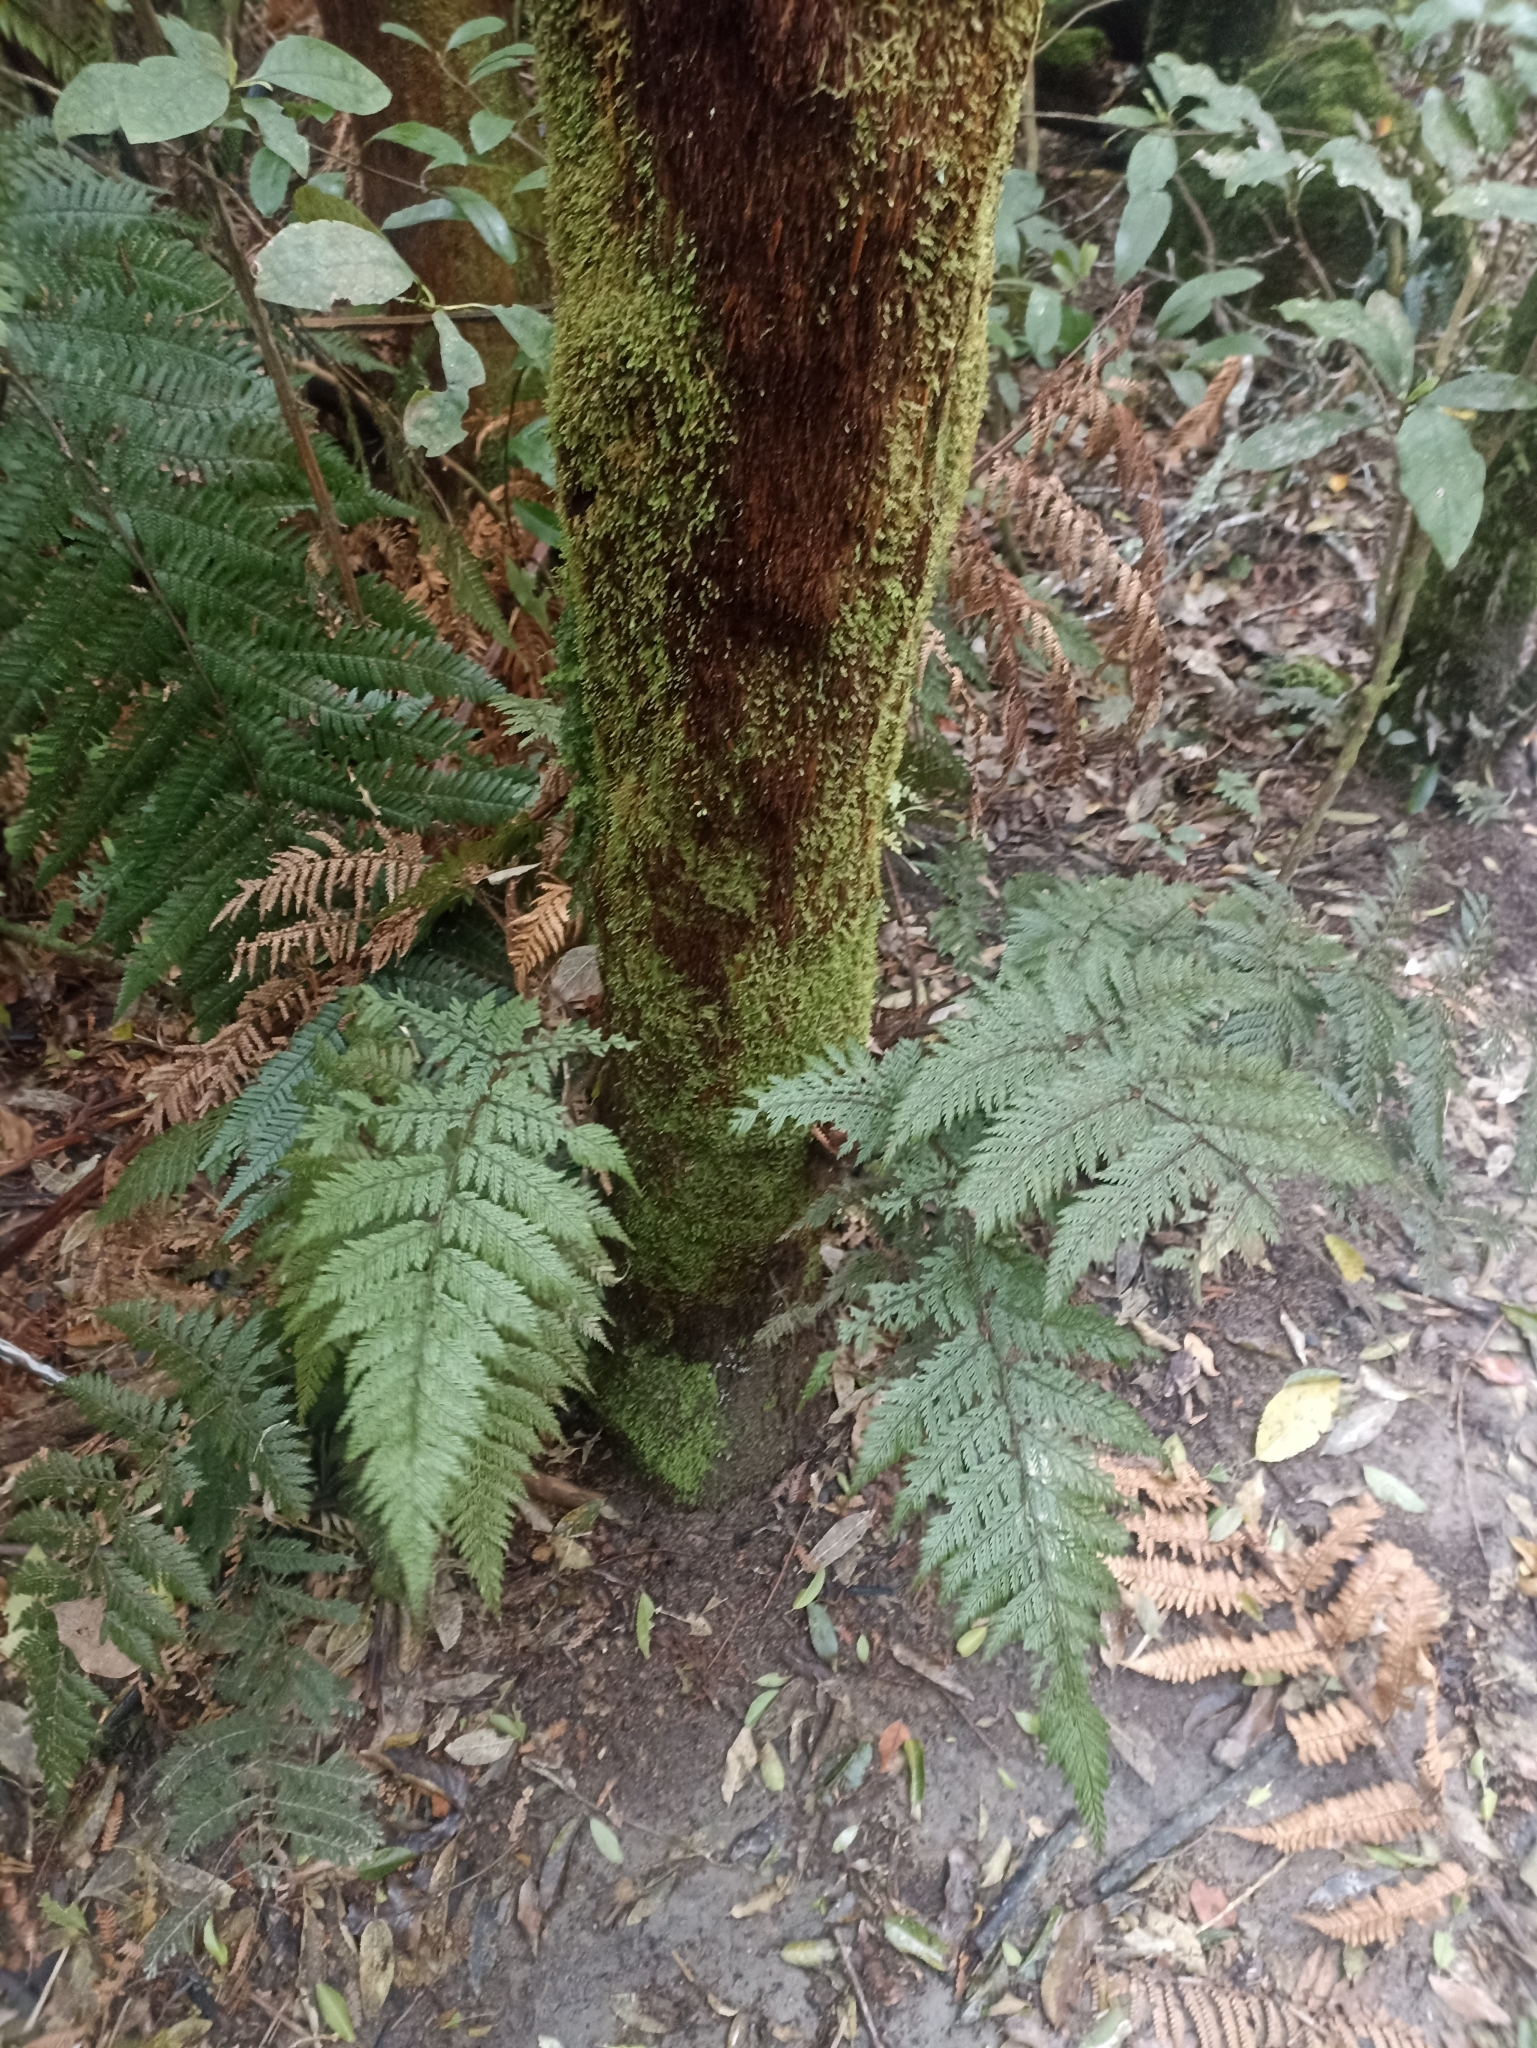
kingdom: Plantae
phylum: Tracheophyta
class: Polypodiopsida
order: Polypodiales
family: Dryopteridaceae
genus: Lastreopsis
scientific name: Lastreopsis hispida
